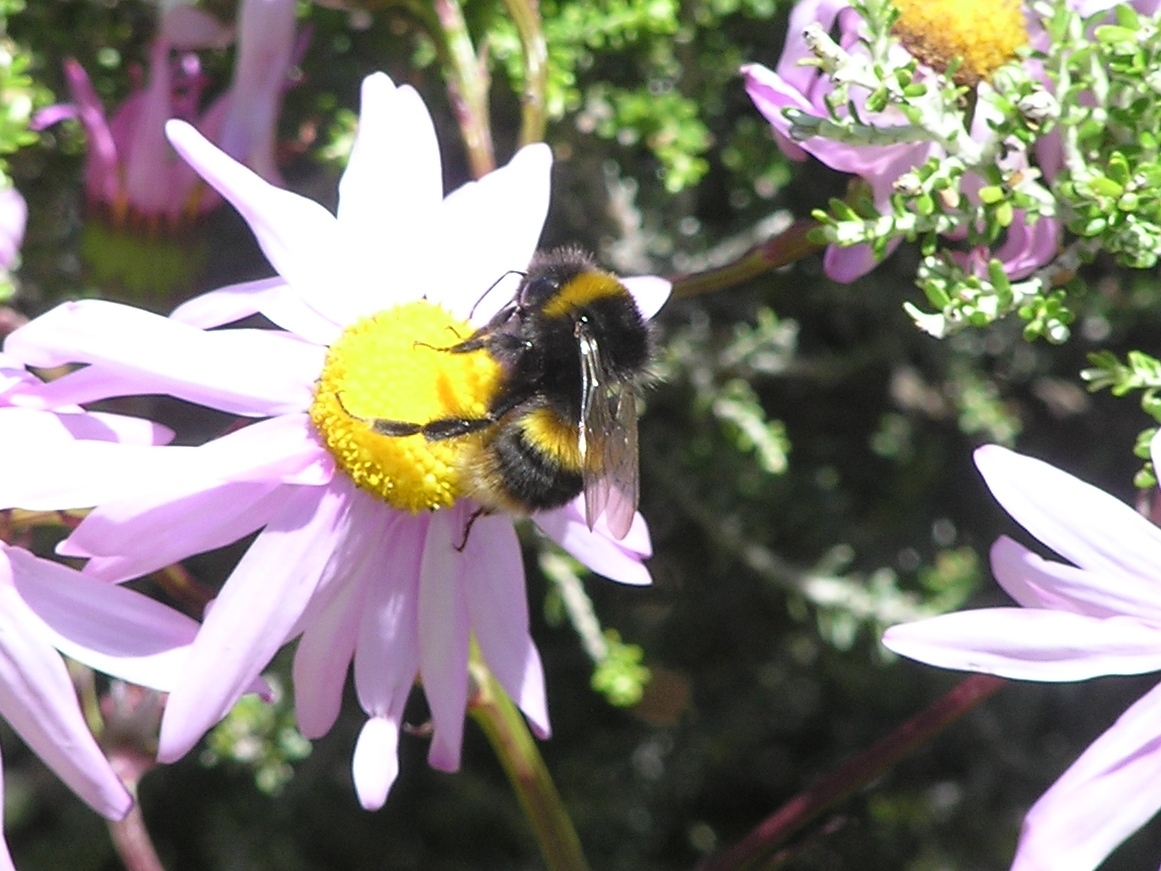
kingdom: Animalia
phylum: Arthropoda
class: Insecta
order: Hymenoptera
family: Apidae
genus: Bombus
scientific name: Bombus terrestris
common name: Buff-tailed bumblebee
